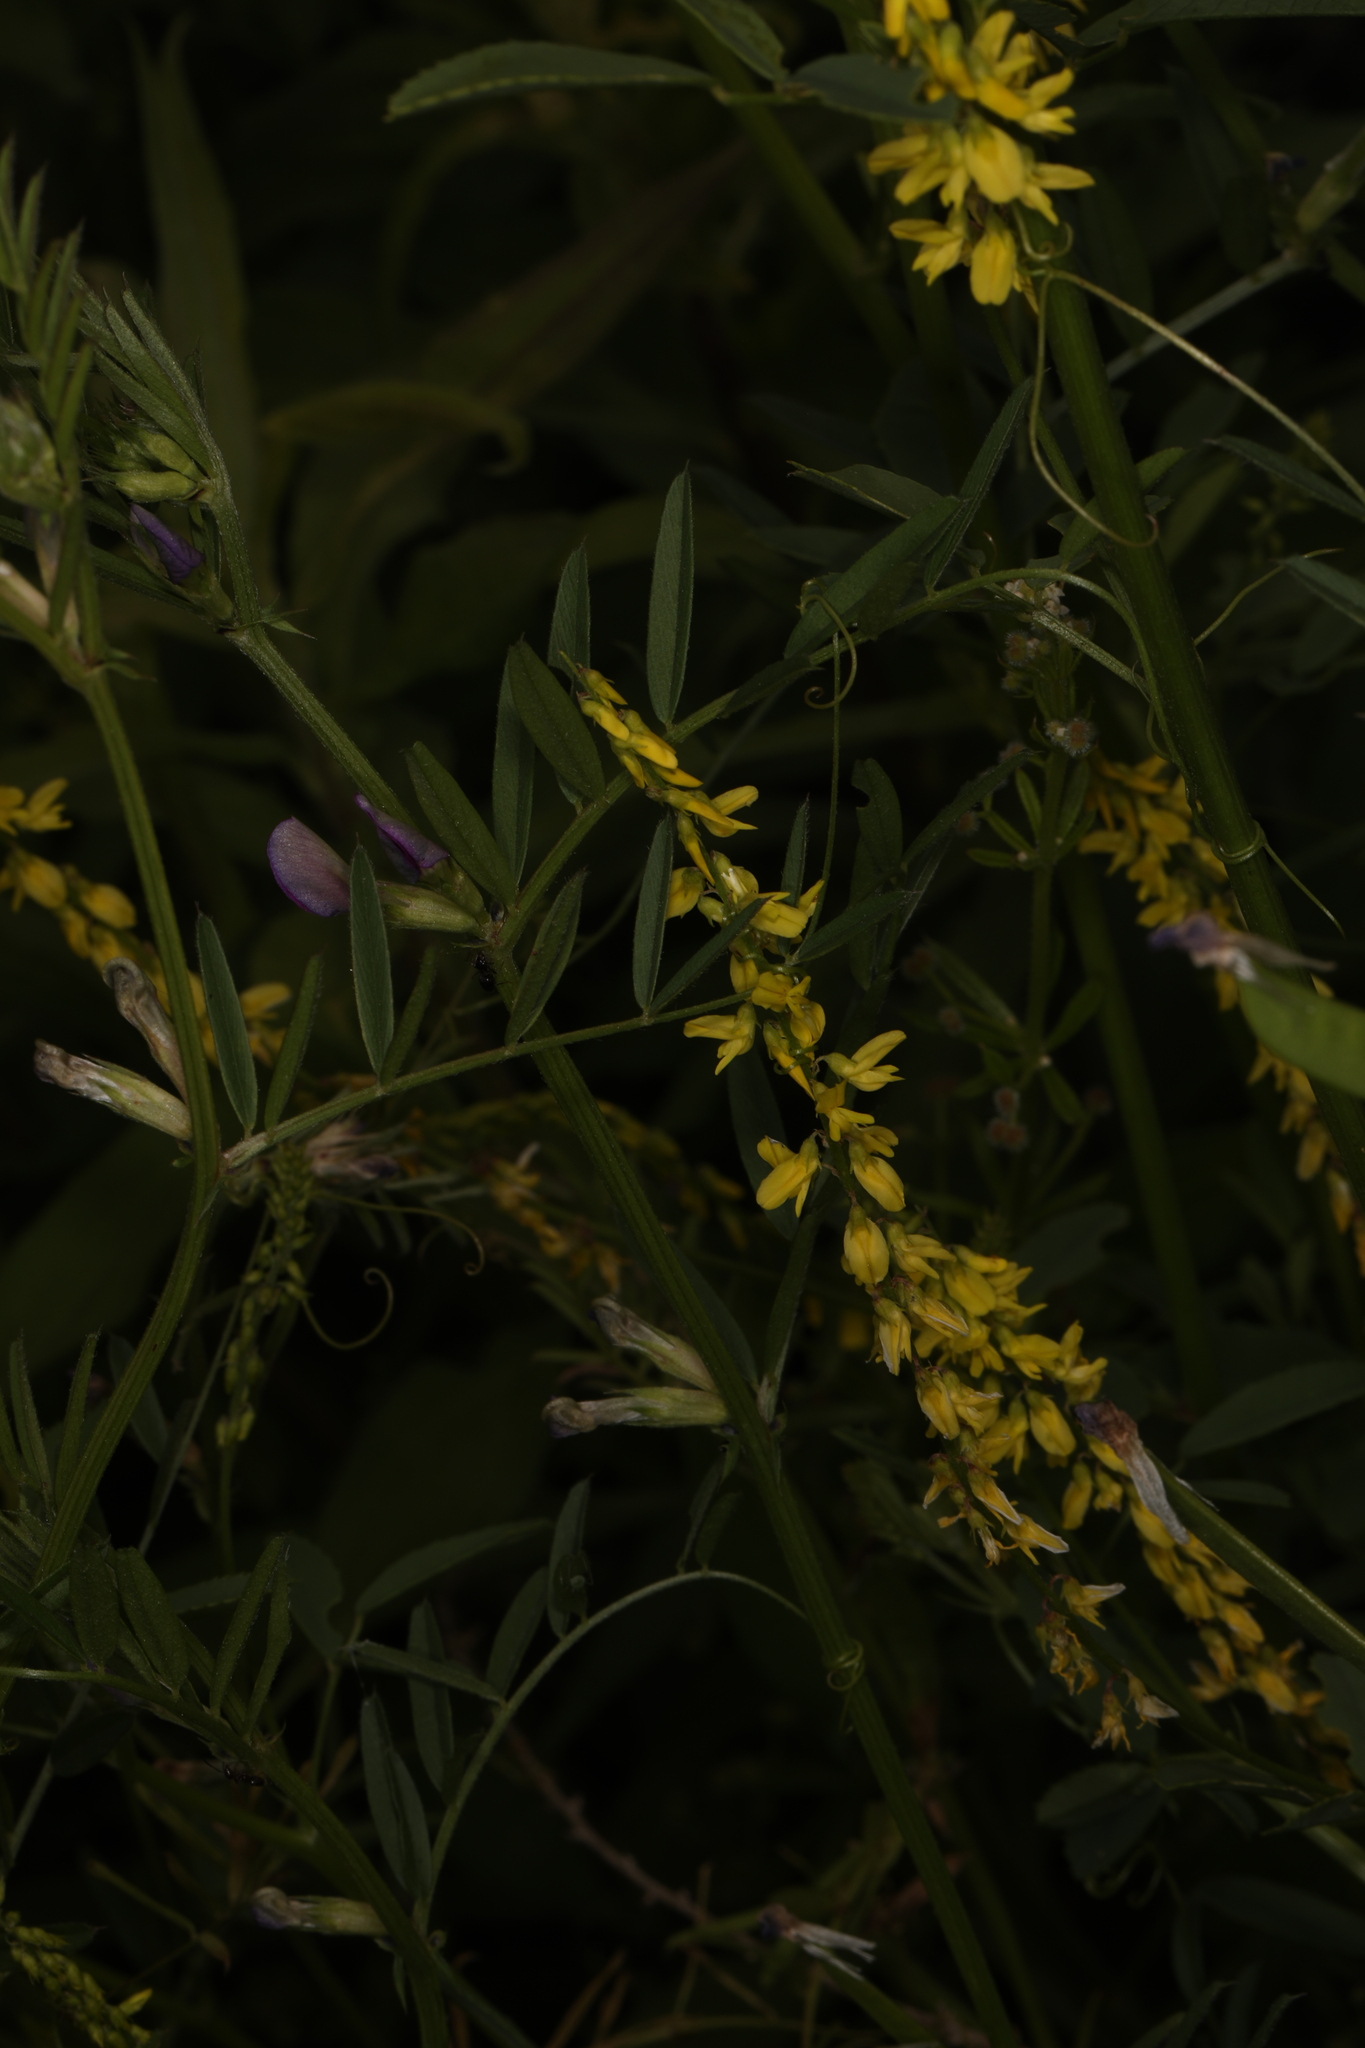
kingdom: Plantae
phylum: Tracheophyta
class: Magnoliopsida
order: Fabales
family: Fabaceae
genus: Melilotus
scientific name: Melilotus officinalis
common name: Sweetclover
